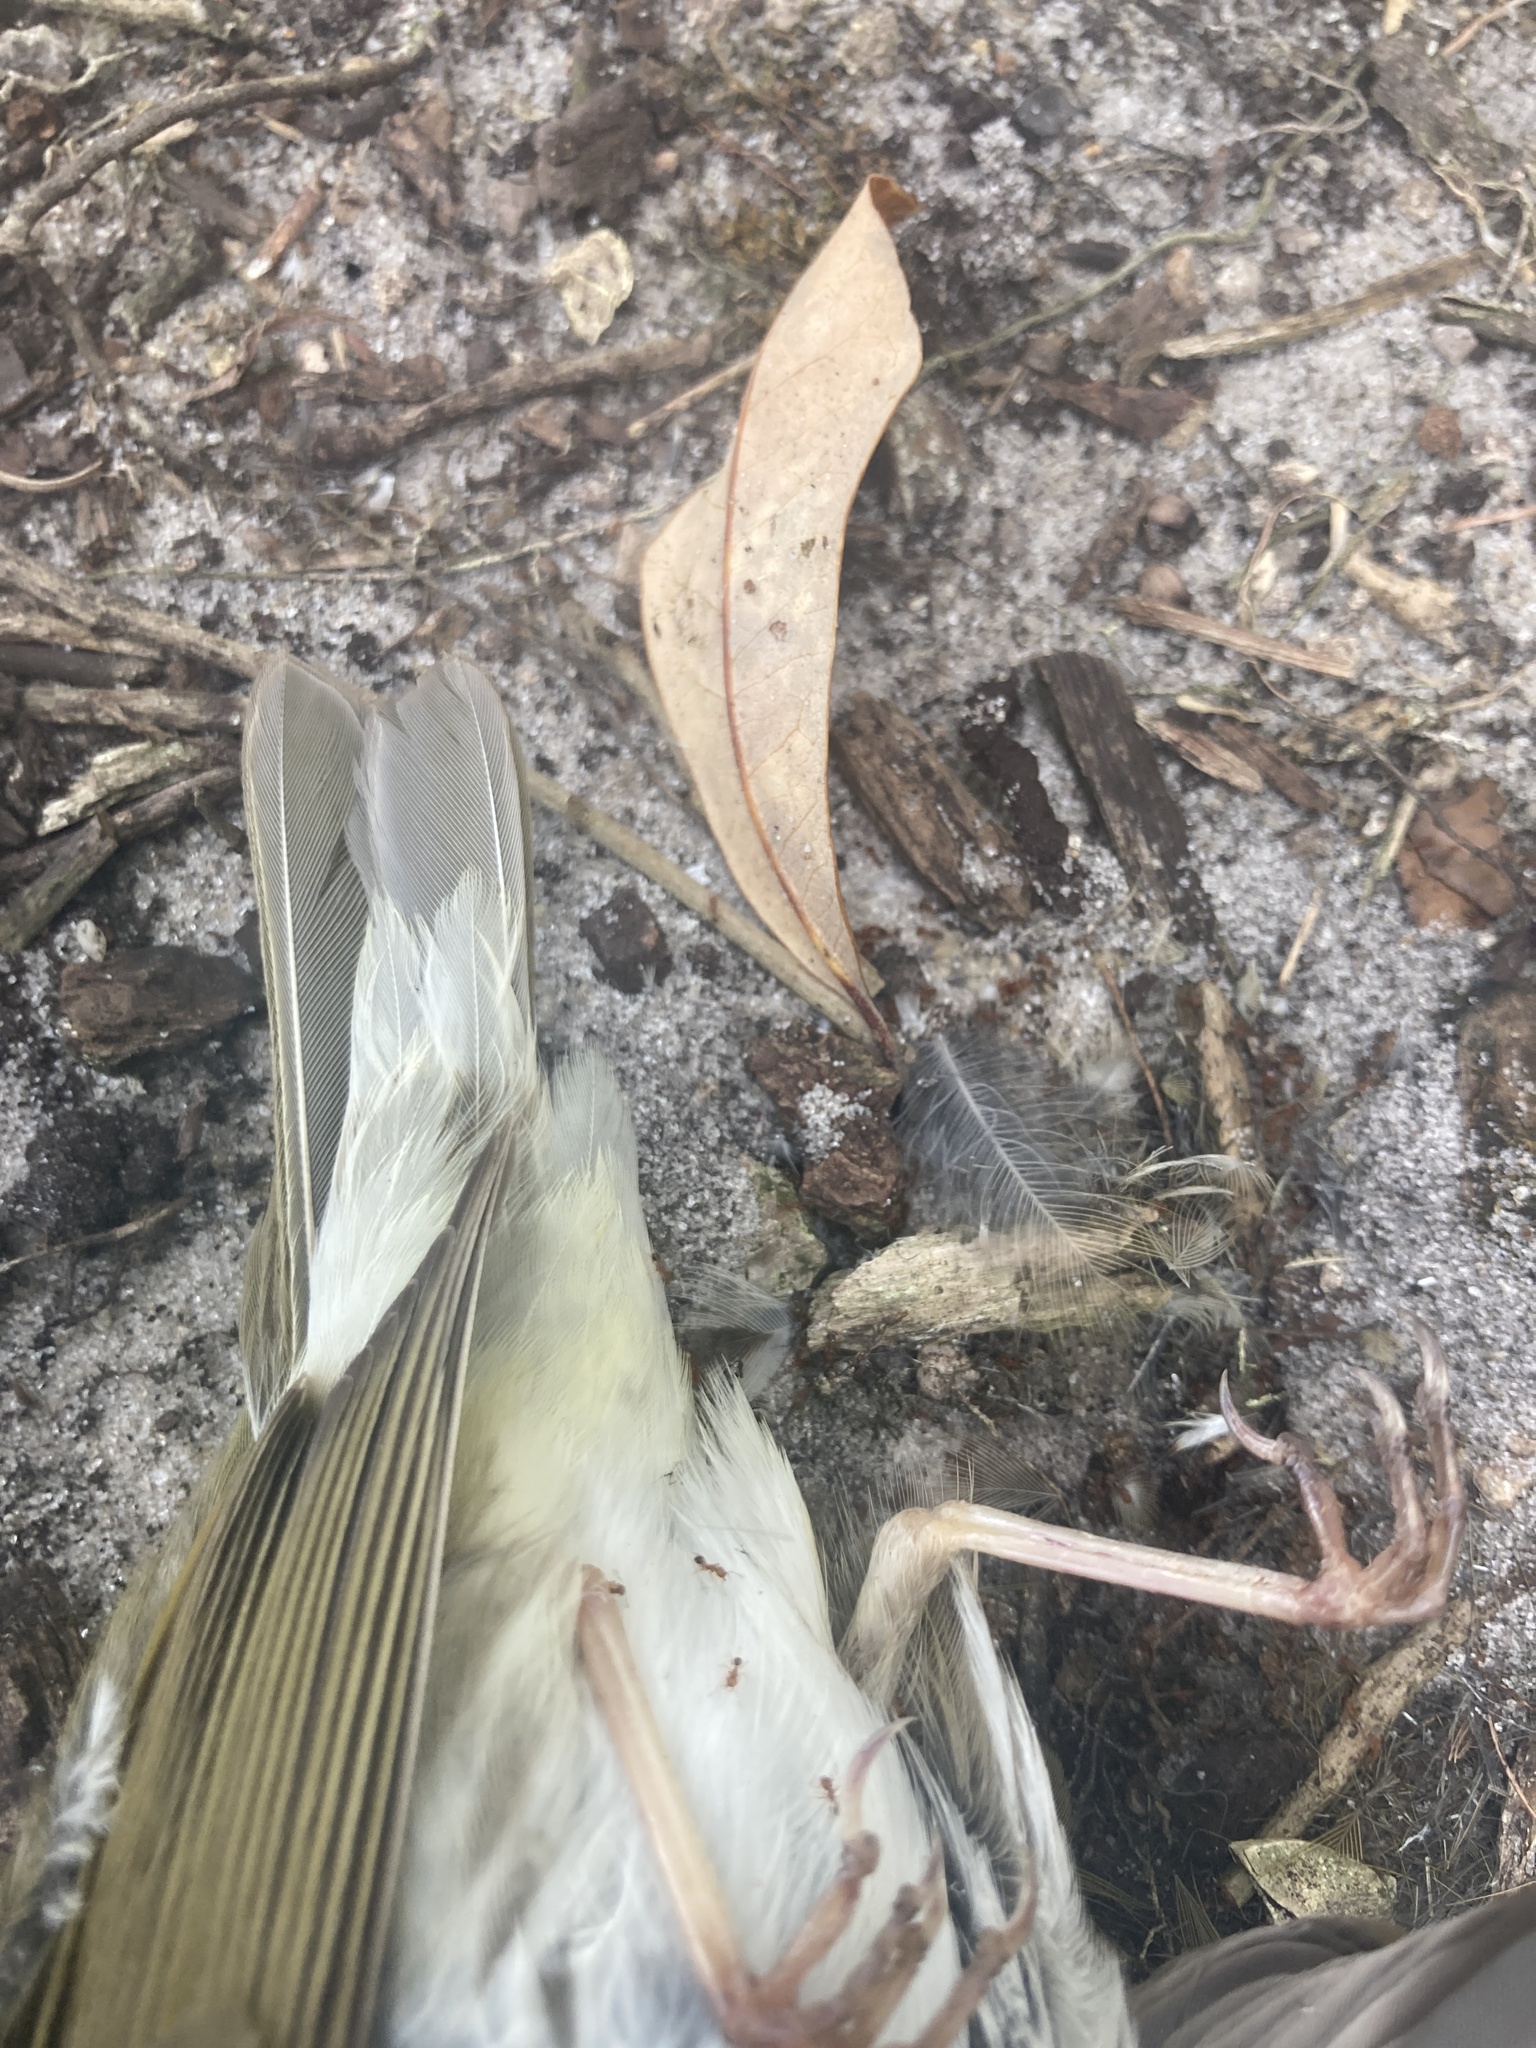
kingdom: Animalia
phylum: Chordata
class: Aves
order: Passeriformes
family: Parulidae
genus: Seiurus
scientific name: Seiurus aurocapilla
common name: Ovenbird
